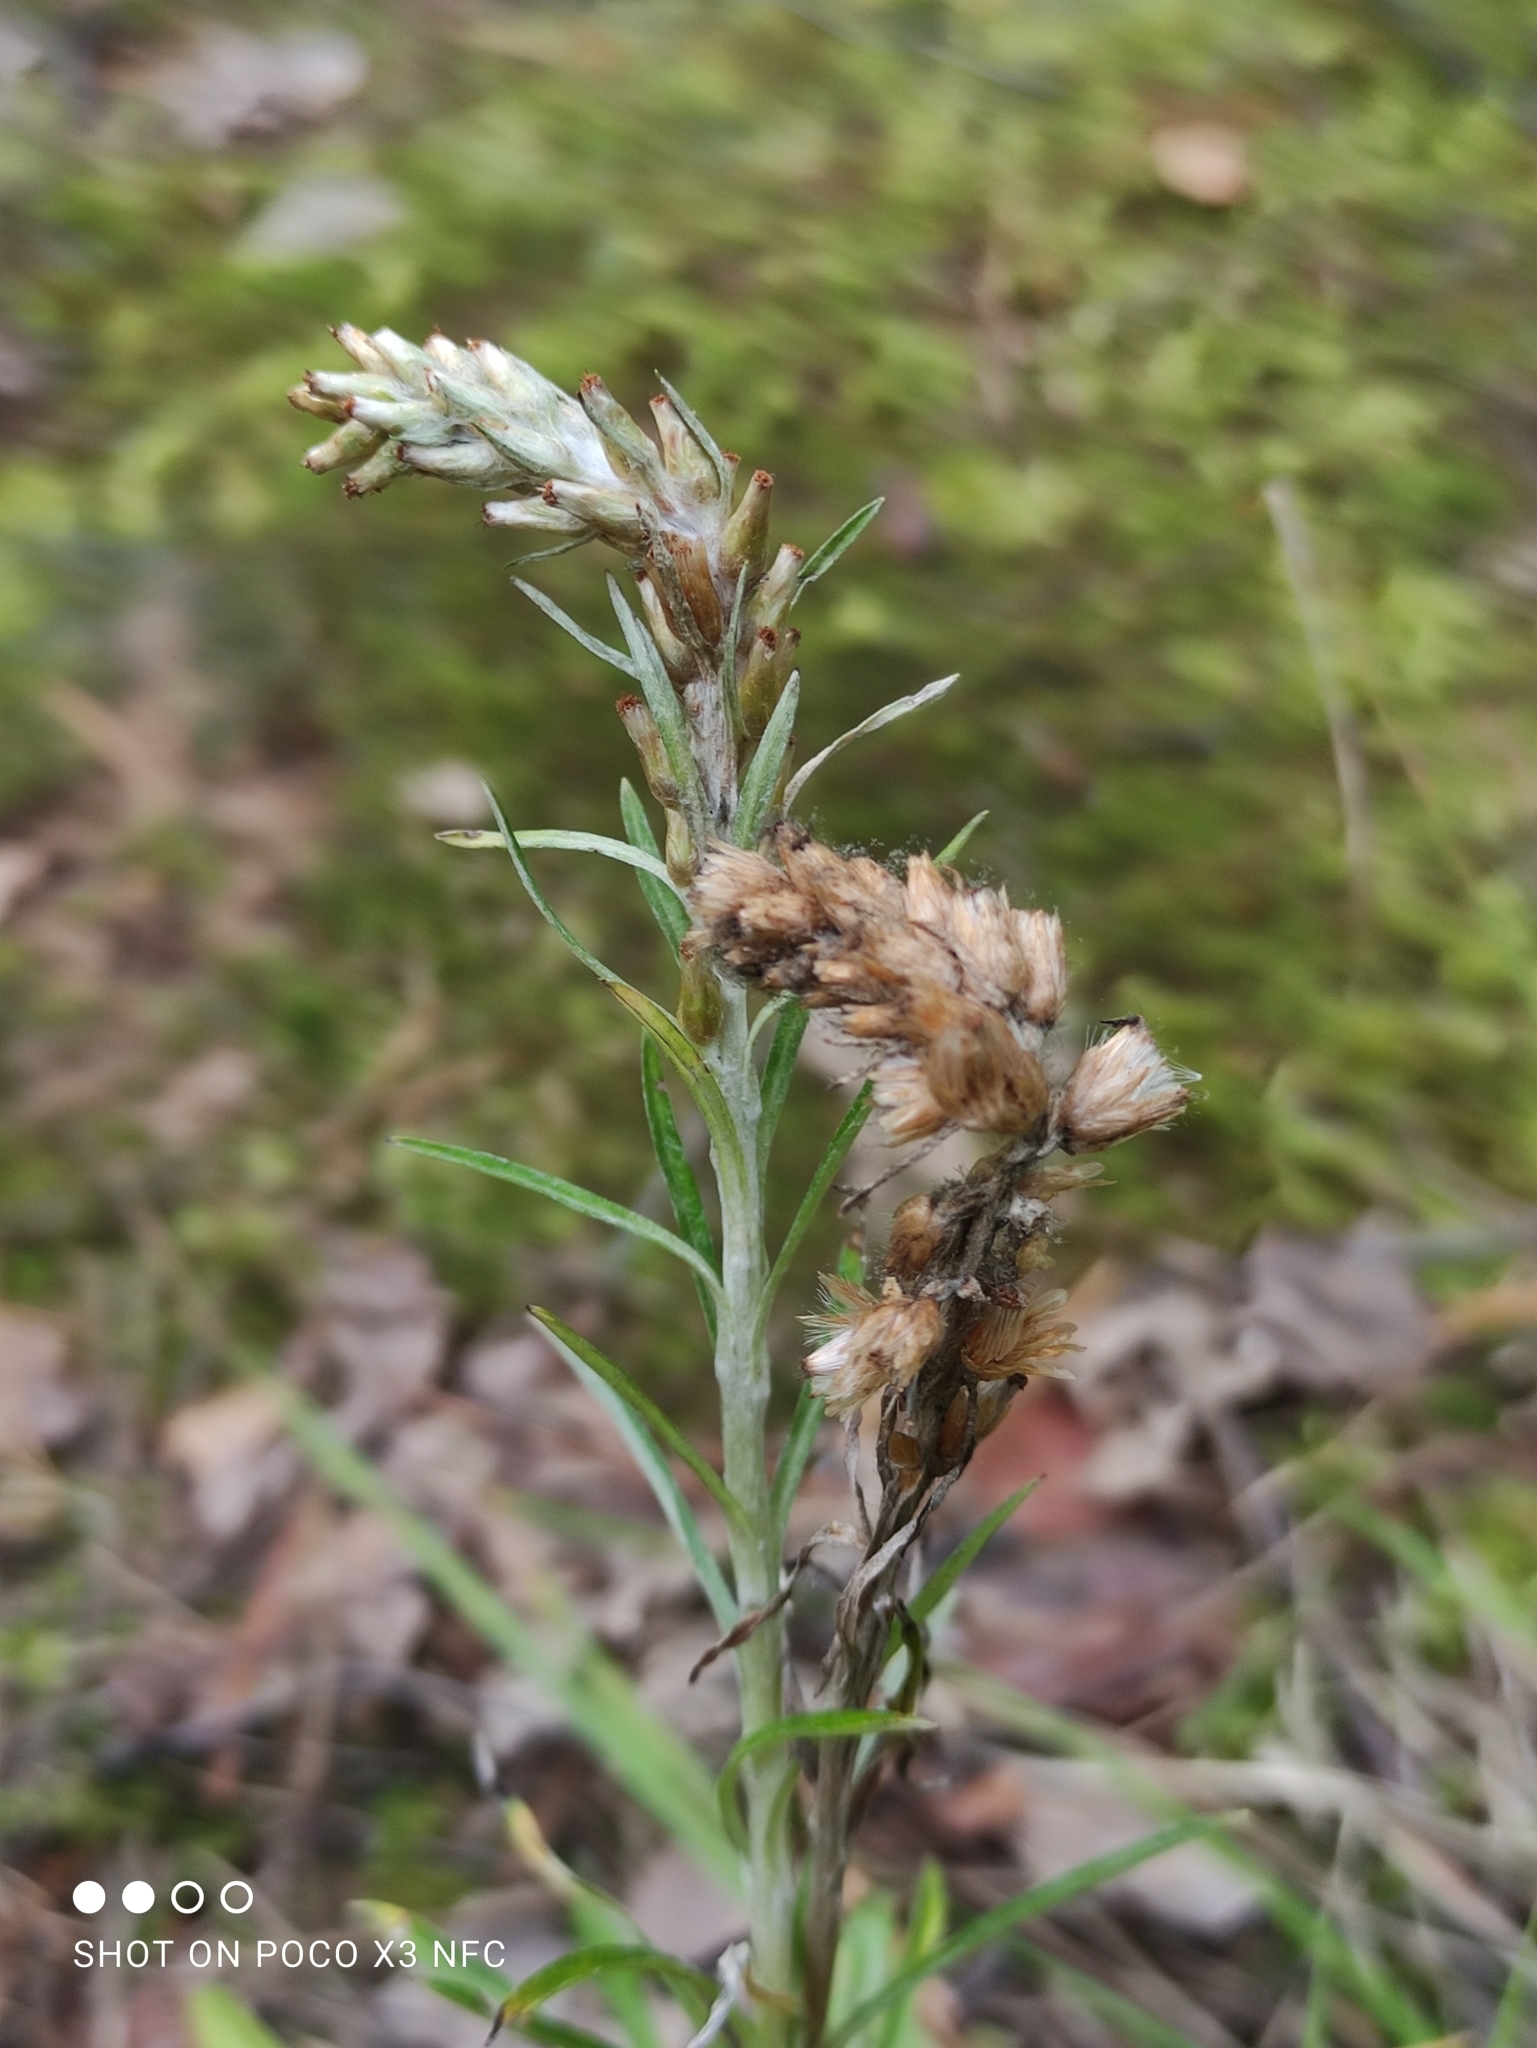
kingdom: Plantae
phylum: Tracheophyta
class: Magnoliopsida
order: Asterales
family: Asteraceae
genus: Omalotheca
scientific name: Omalotheca sylvatica
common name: Heath cudweed
